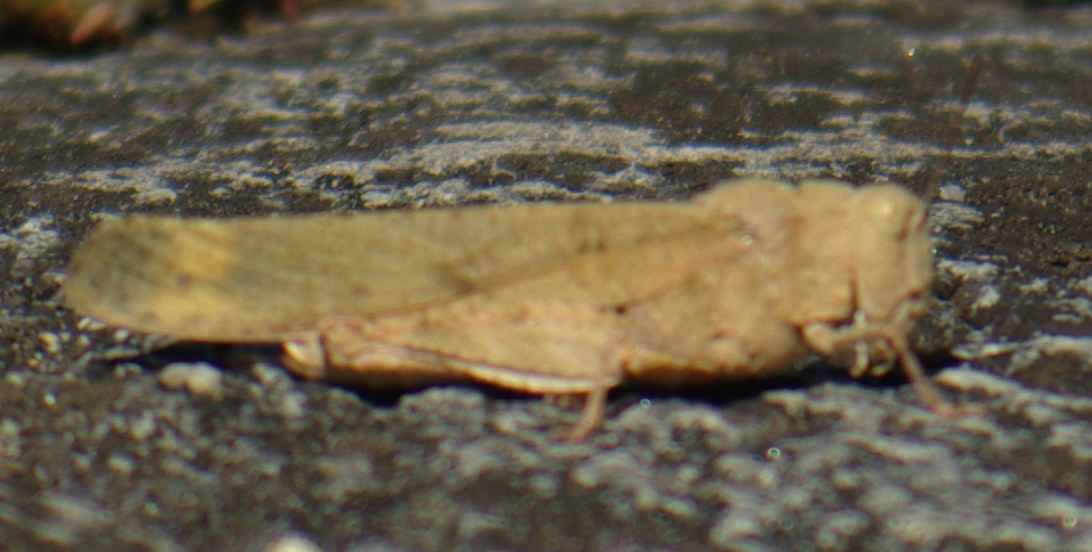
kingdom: Animalia
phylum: Arthropoda
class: Insecta
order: Orthoptera
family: Acrididae
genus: Dissosteira
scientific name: Dissosteira carolina
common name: Carolina grasshopper
